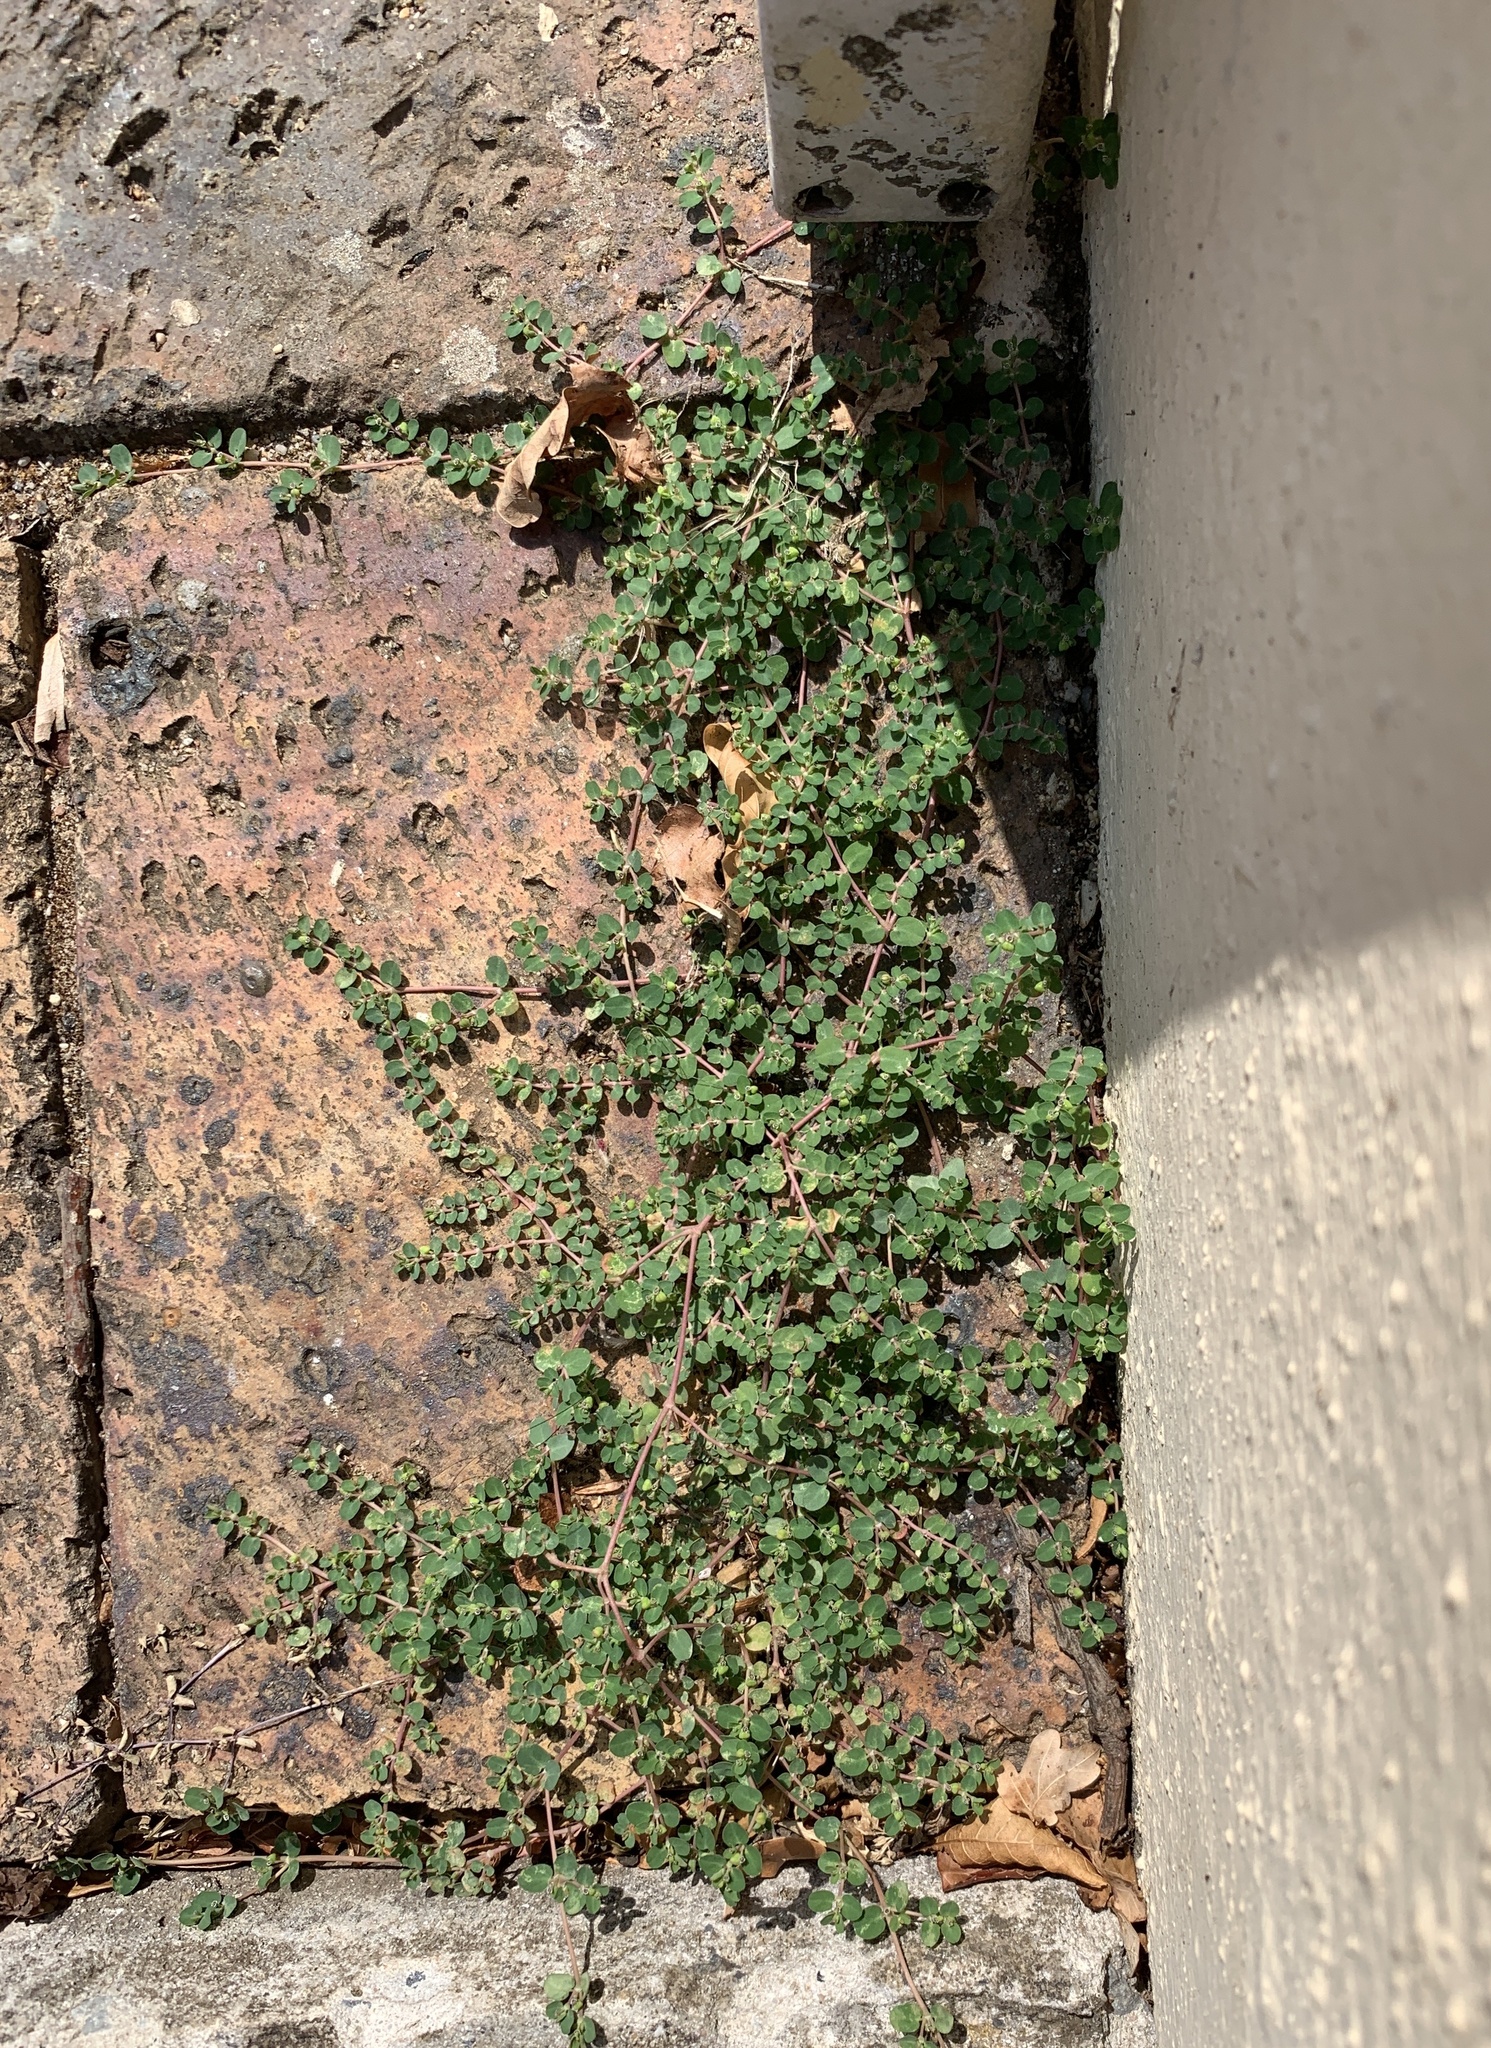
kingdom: Plantae
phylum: Tracheophyta
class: Magnoliopsida
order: Malpighiales
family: Euphorbiaceae
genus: Euphorbia
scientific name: Euphorbia serpens
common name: Matted sandmat
